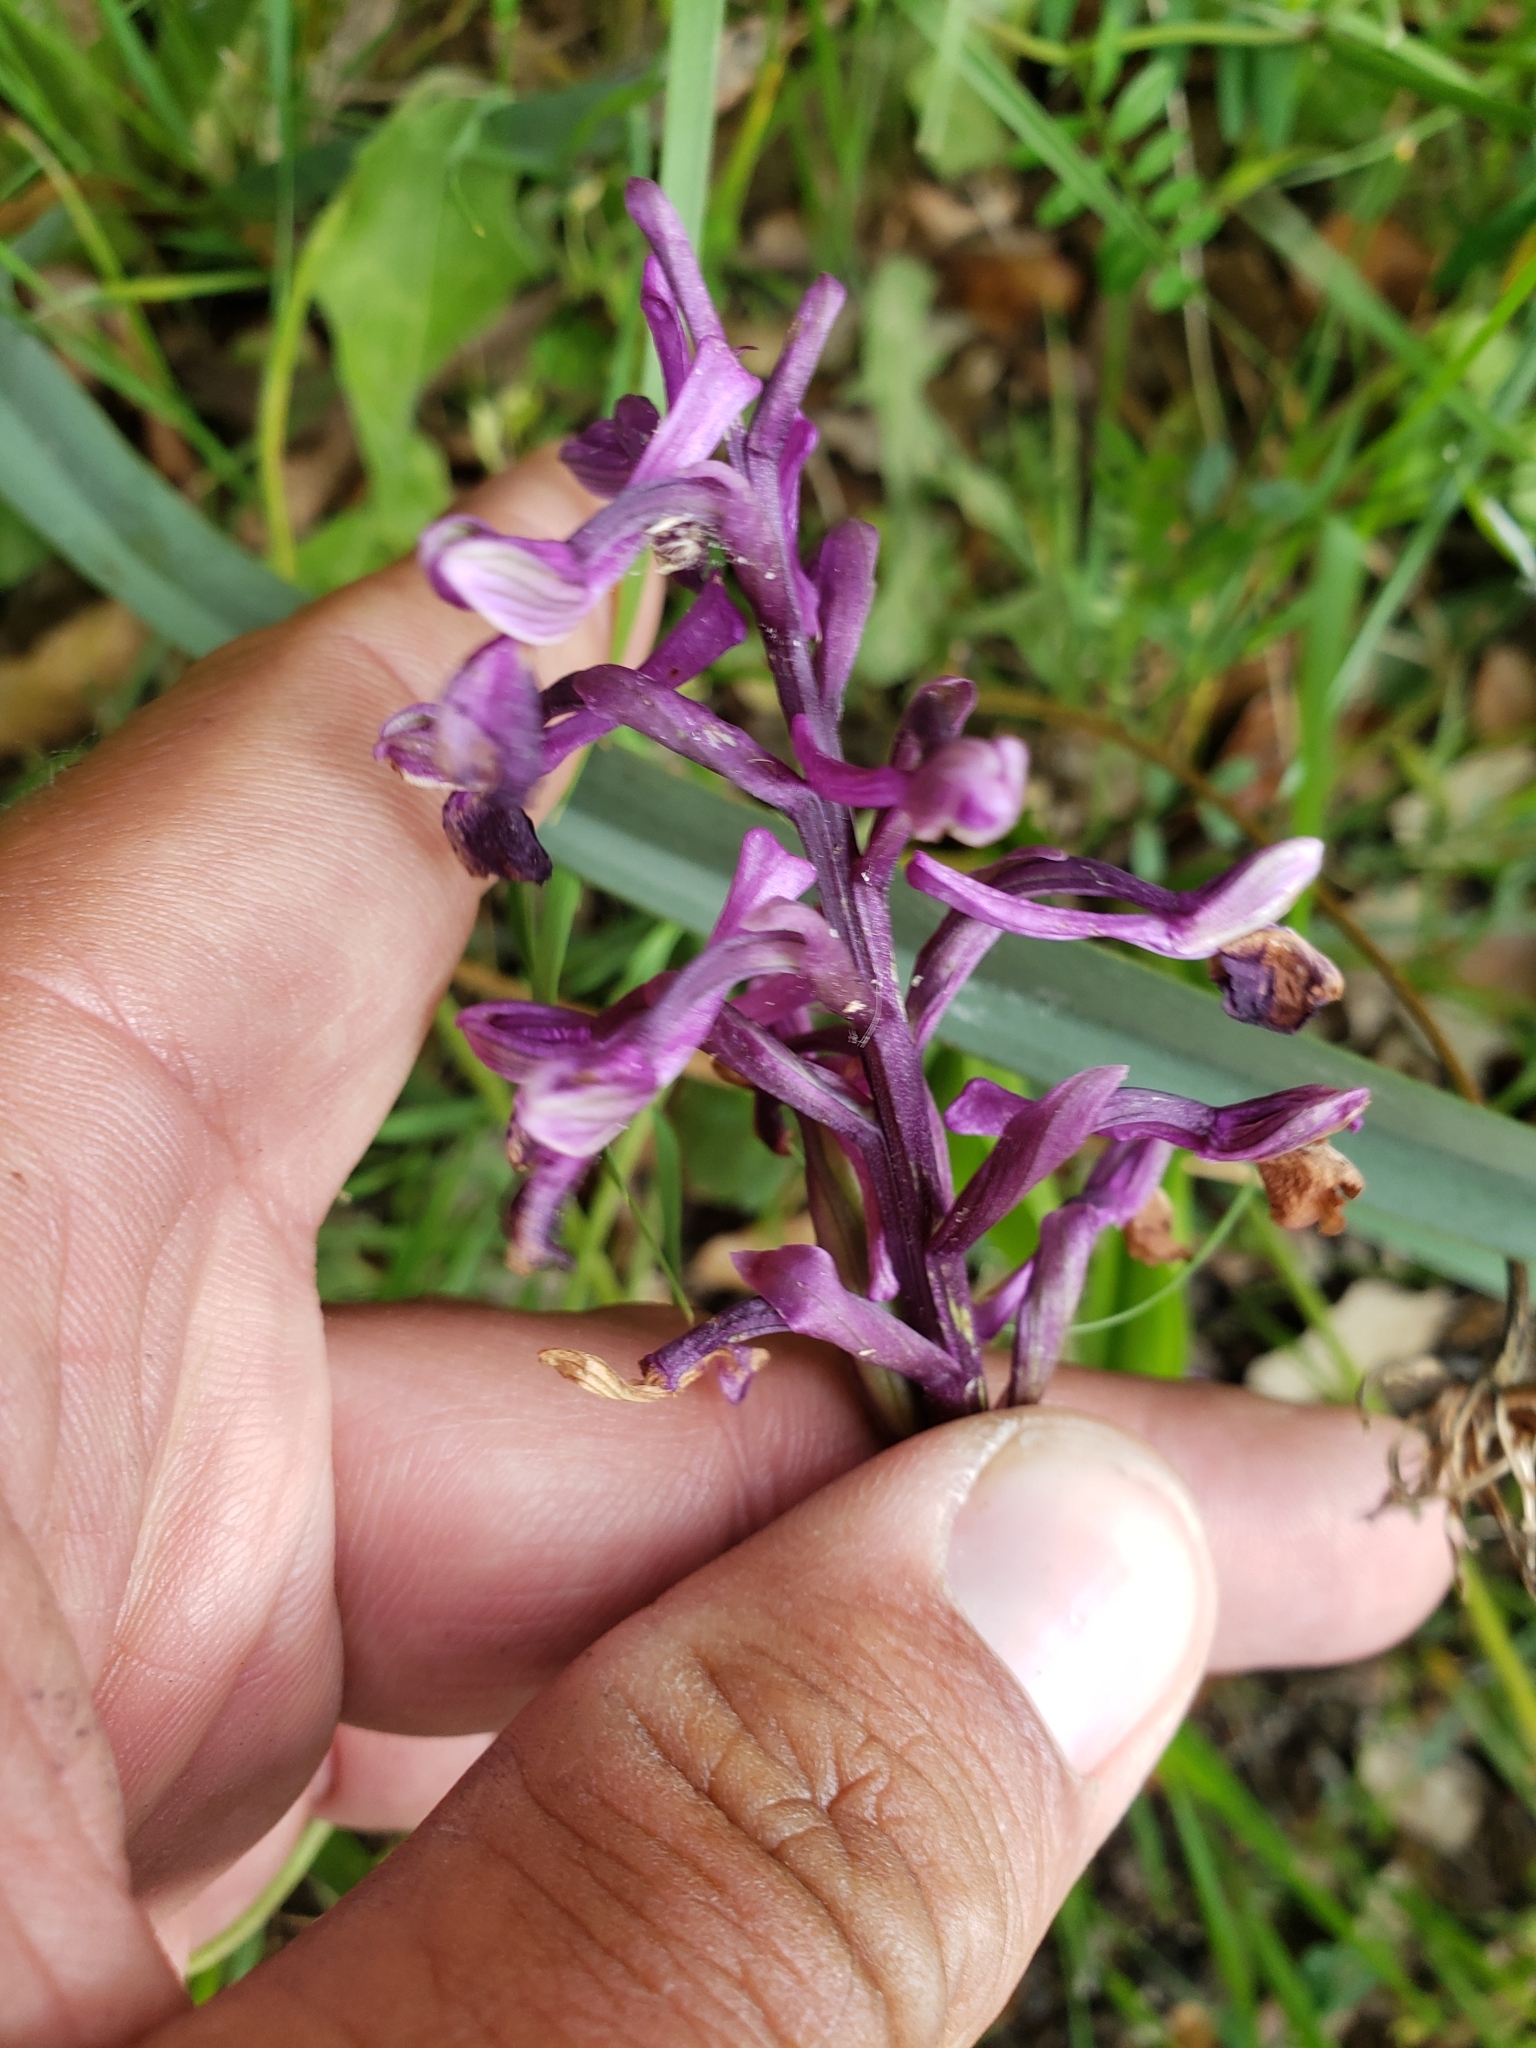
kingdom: Plantae
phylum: Tracheophyta
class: Liliopsida
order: Asparagales
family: Orchidaceae
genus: Anacamptis
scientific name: Anacamptis morio
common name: Green-winged orchid
